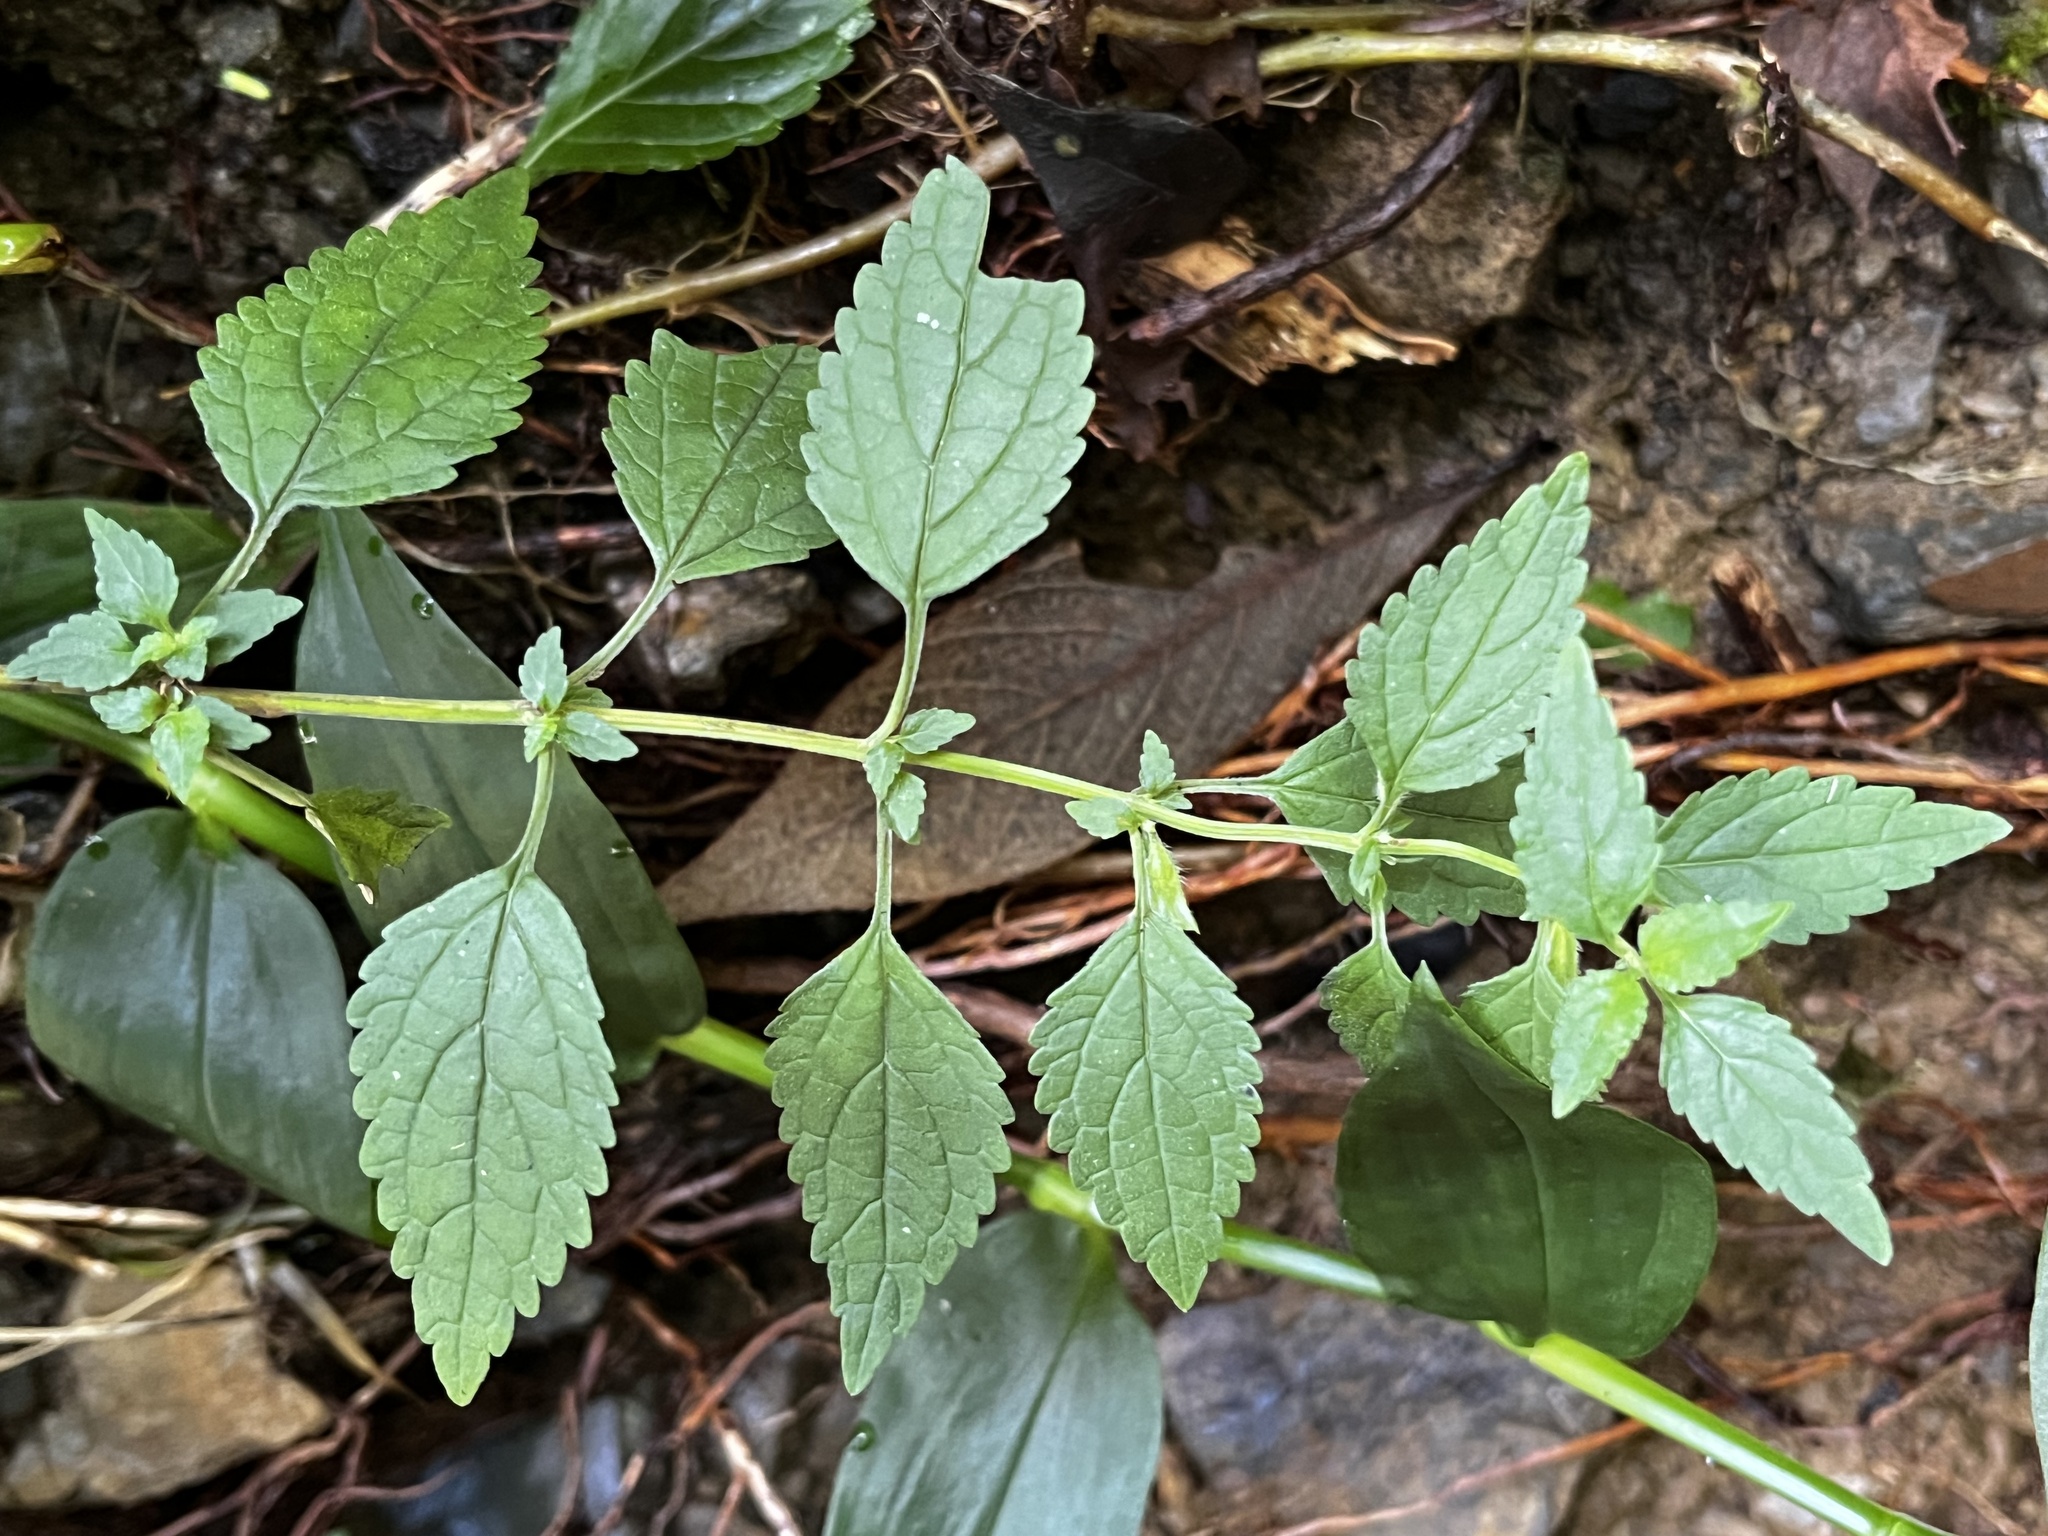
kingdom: Plantae
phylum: Tracheophyta
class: Magnoliopsida
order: Lamiales
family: Lamiaceae
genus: Melissa
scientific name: Melissa axillaris
